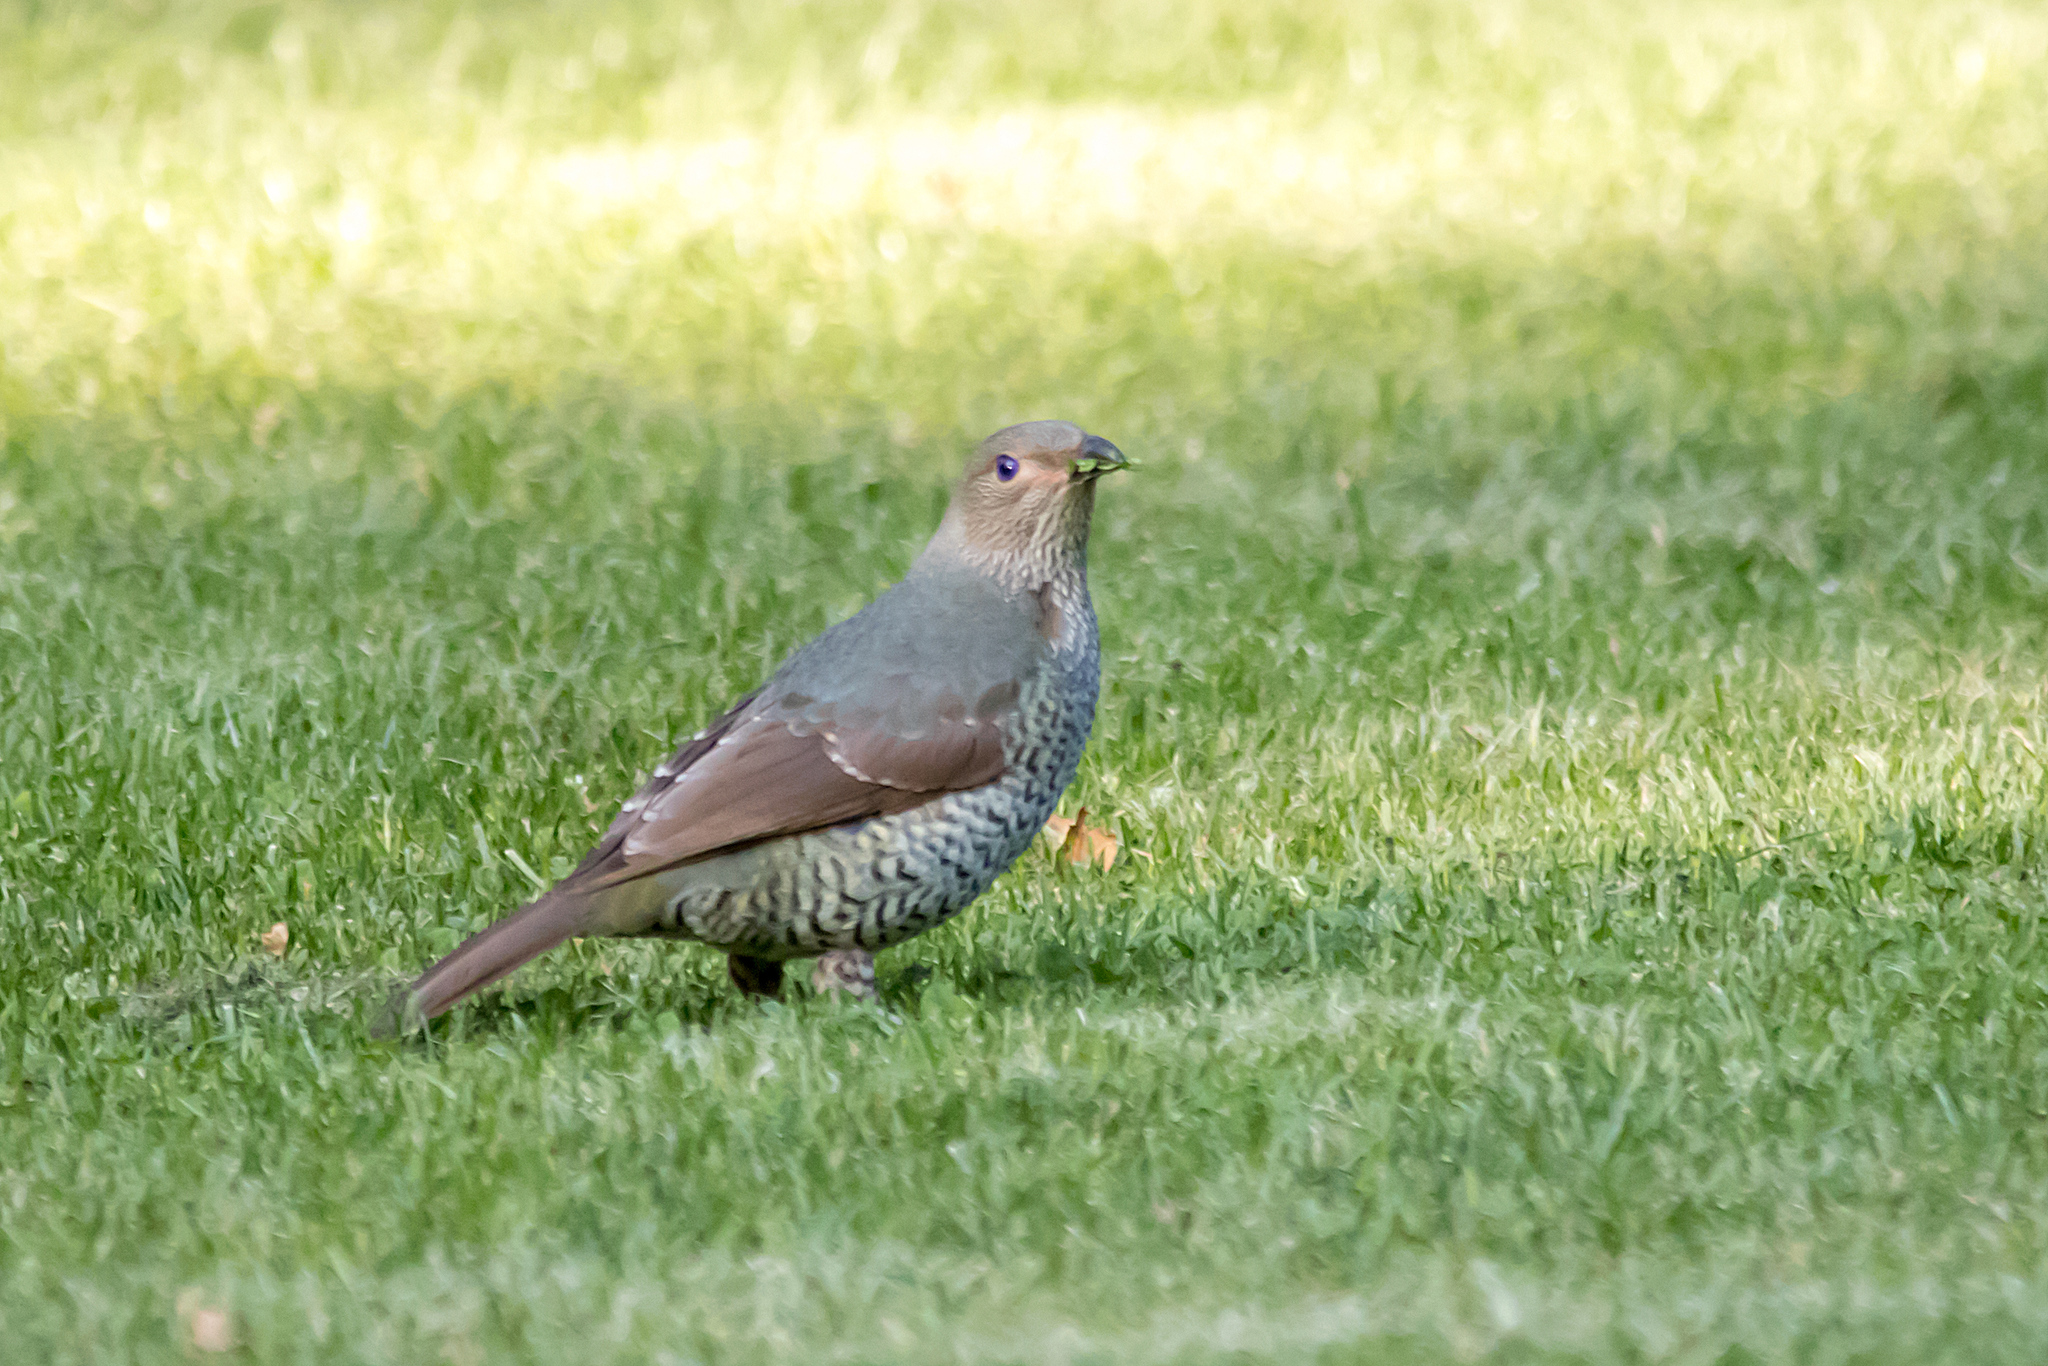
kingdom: Animalia
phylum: Chordata
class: Aves
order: Passeriformes
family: Ptilonorhynchidae
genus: Ptilonorhynchus
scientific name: Ptilonorhynchus violaceus
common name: Satin bowerbird
